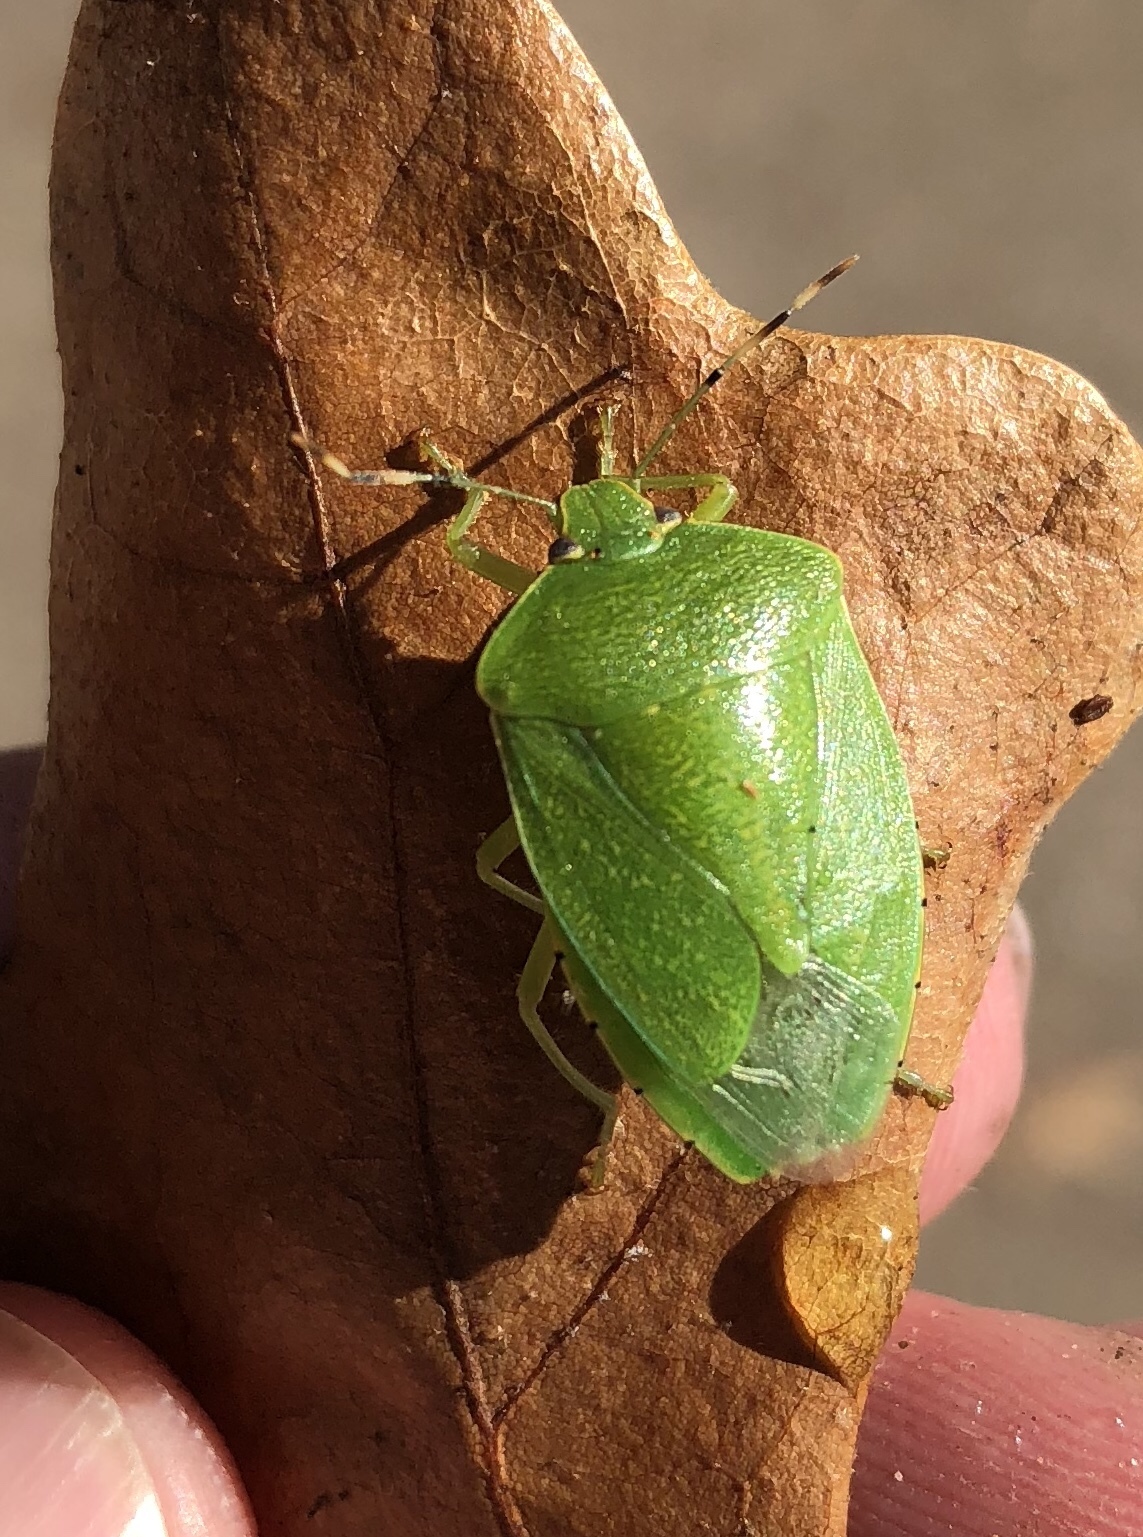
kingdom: Animalia
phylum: Arthropoda
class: Insecta
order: Hemiptera
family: Pentatomidae
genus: Chinavia
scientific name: Chinavia hilaris
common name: Green stink bug
